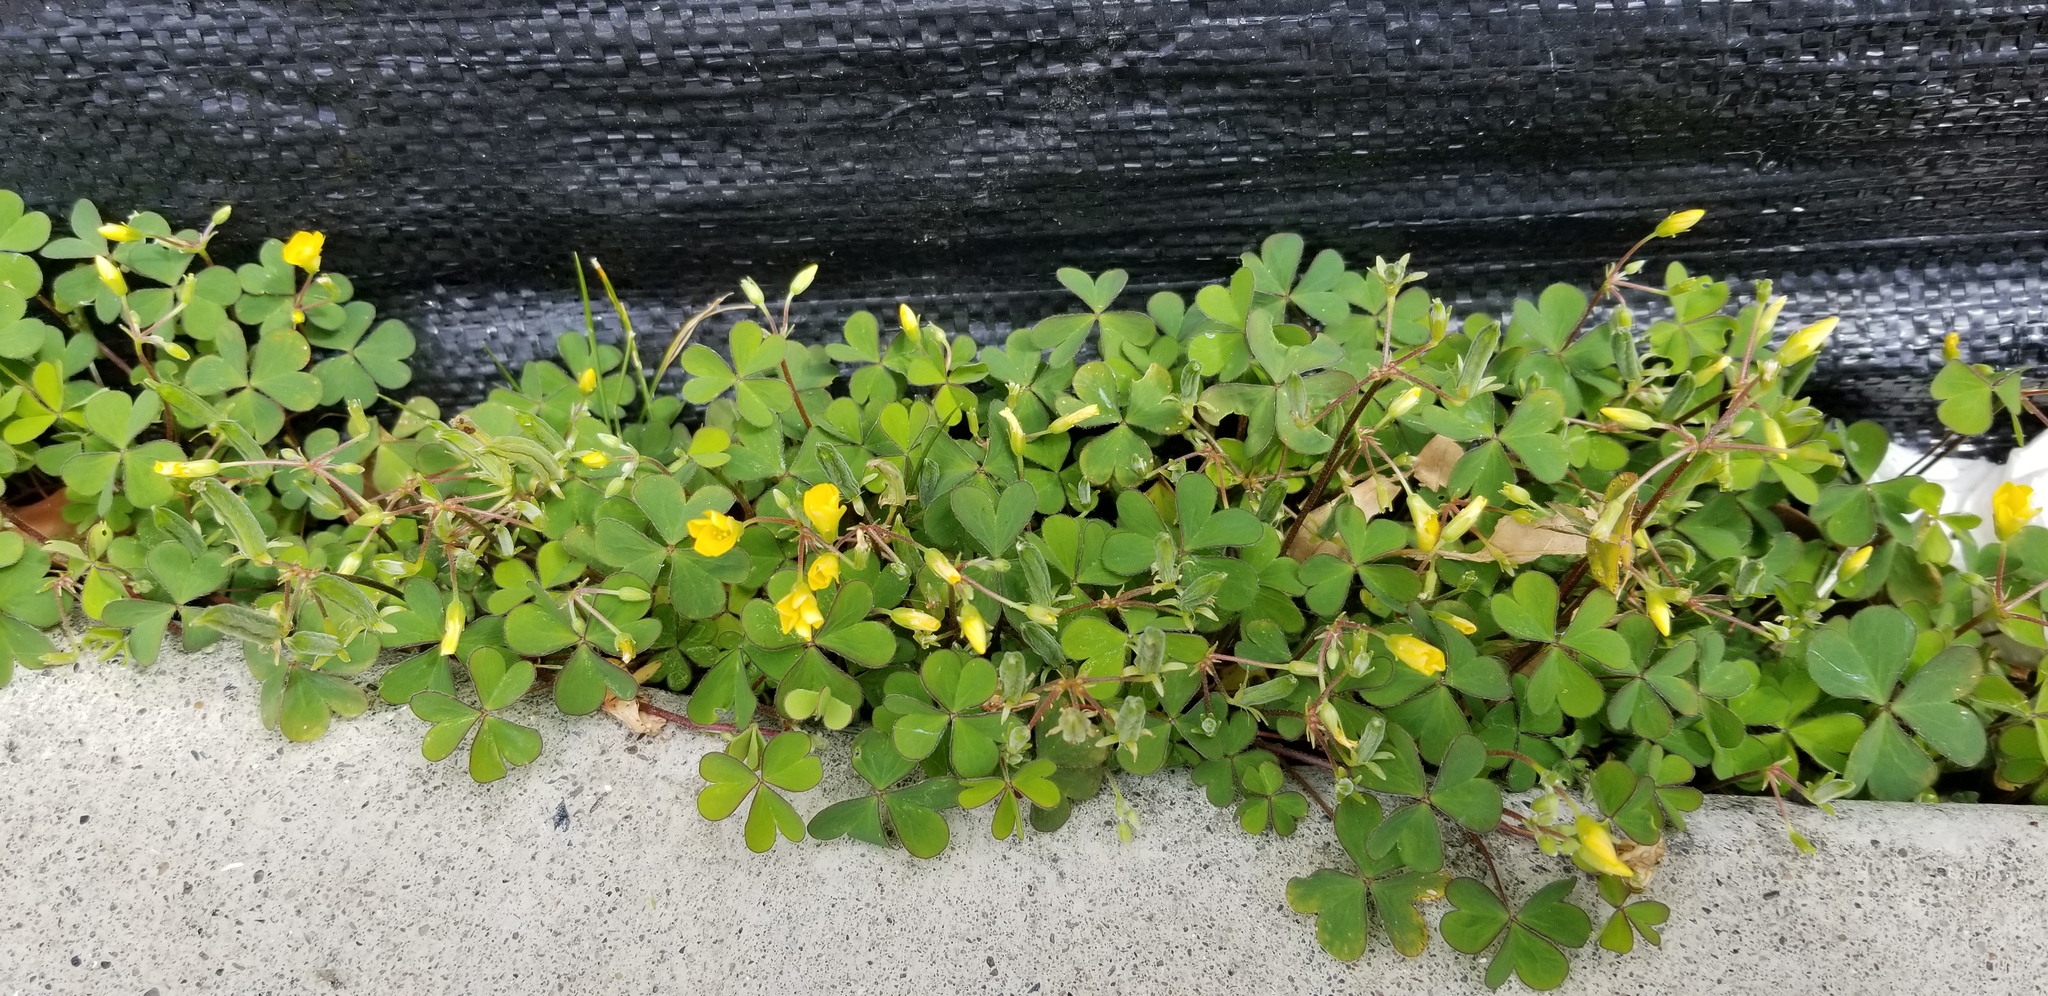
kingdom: Plantae
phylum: Tracheophyta
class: Magnoliopsida
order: Oxalidales
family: Oxalidaceae
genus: Oxalis
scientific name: Oxalis corniculata
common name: Procumbent yellow-sorrel
